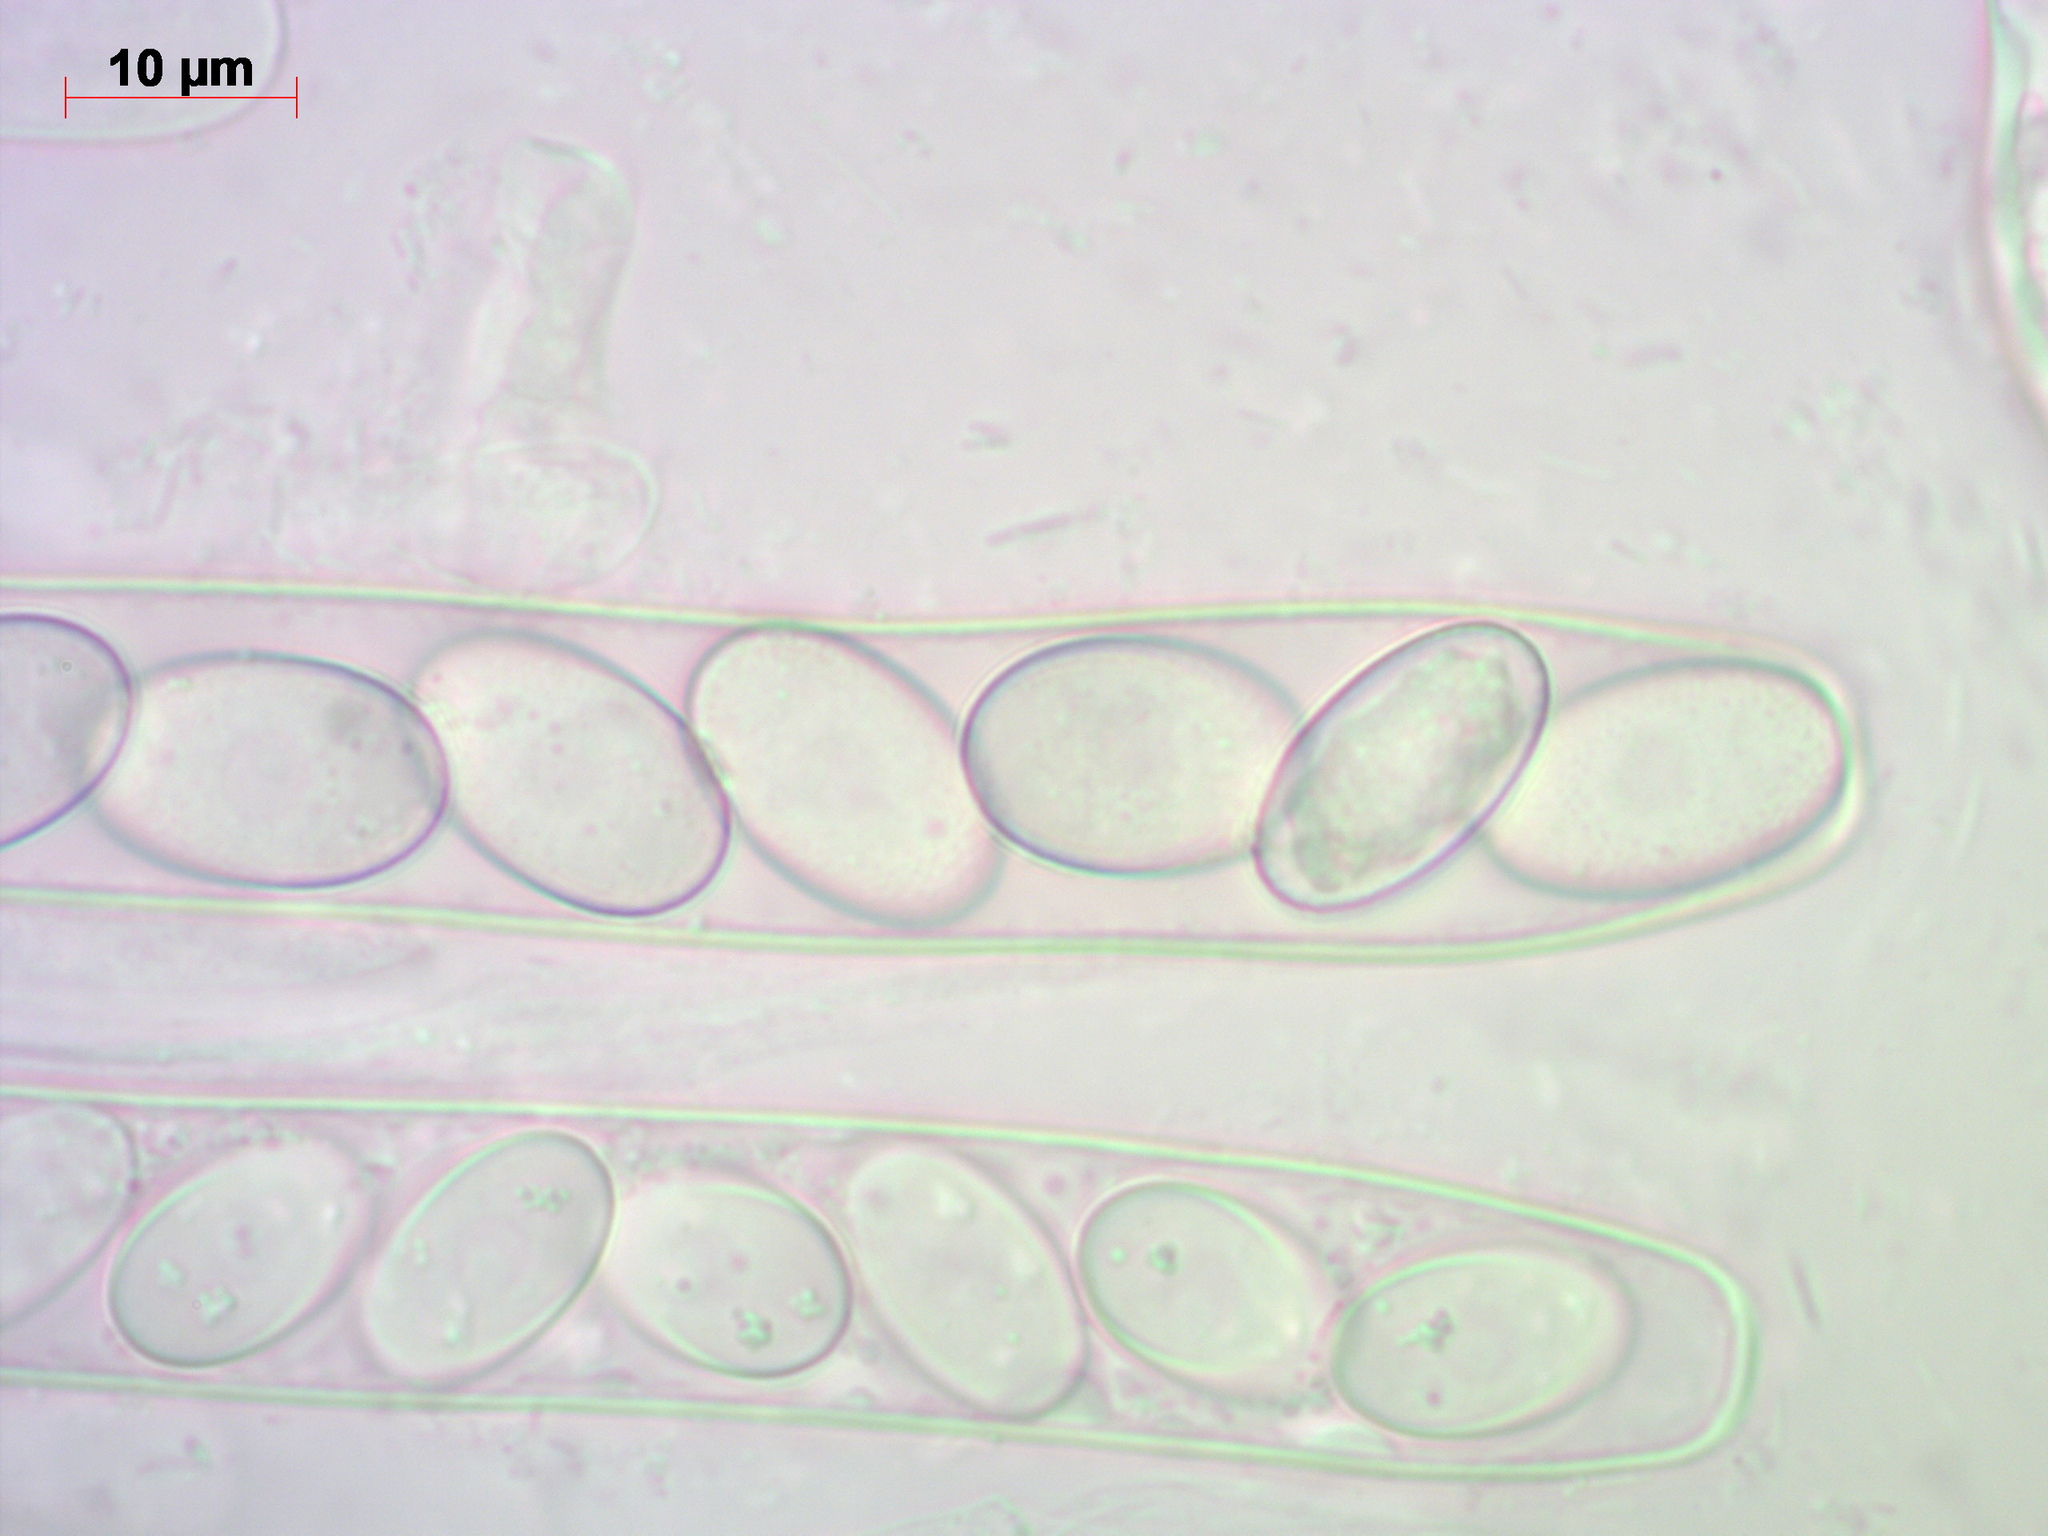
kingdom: Fungi
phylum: Ascomycota
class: Pezizomycetes
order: Pezizales
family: Pezizaceae
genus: Peziza
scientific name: Peziza varia
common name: Layered cup
